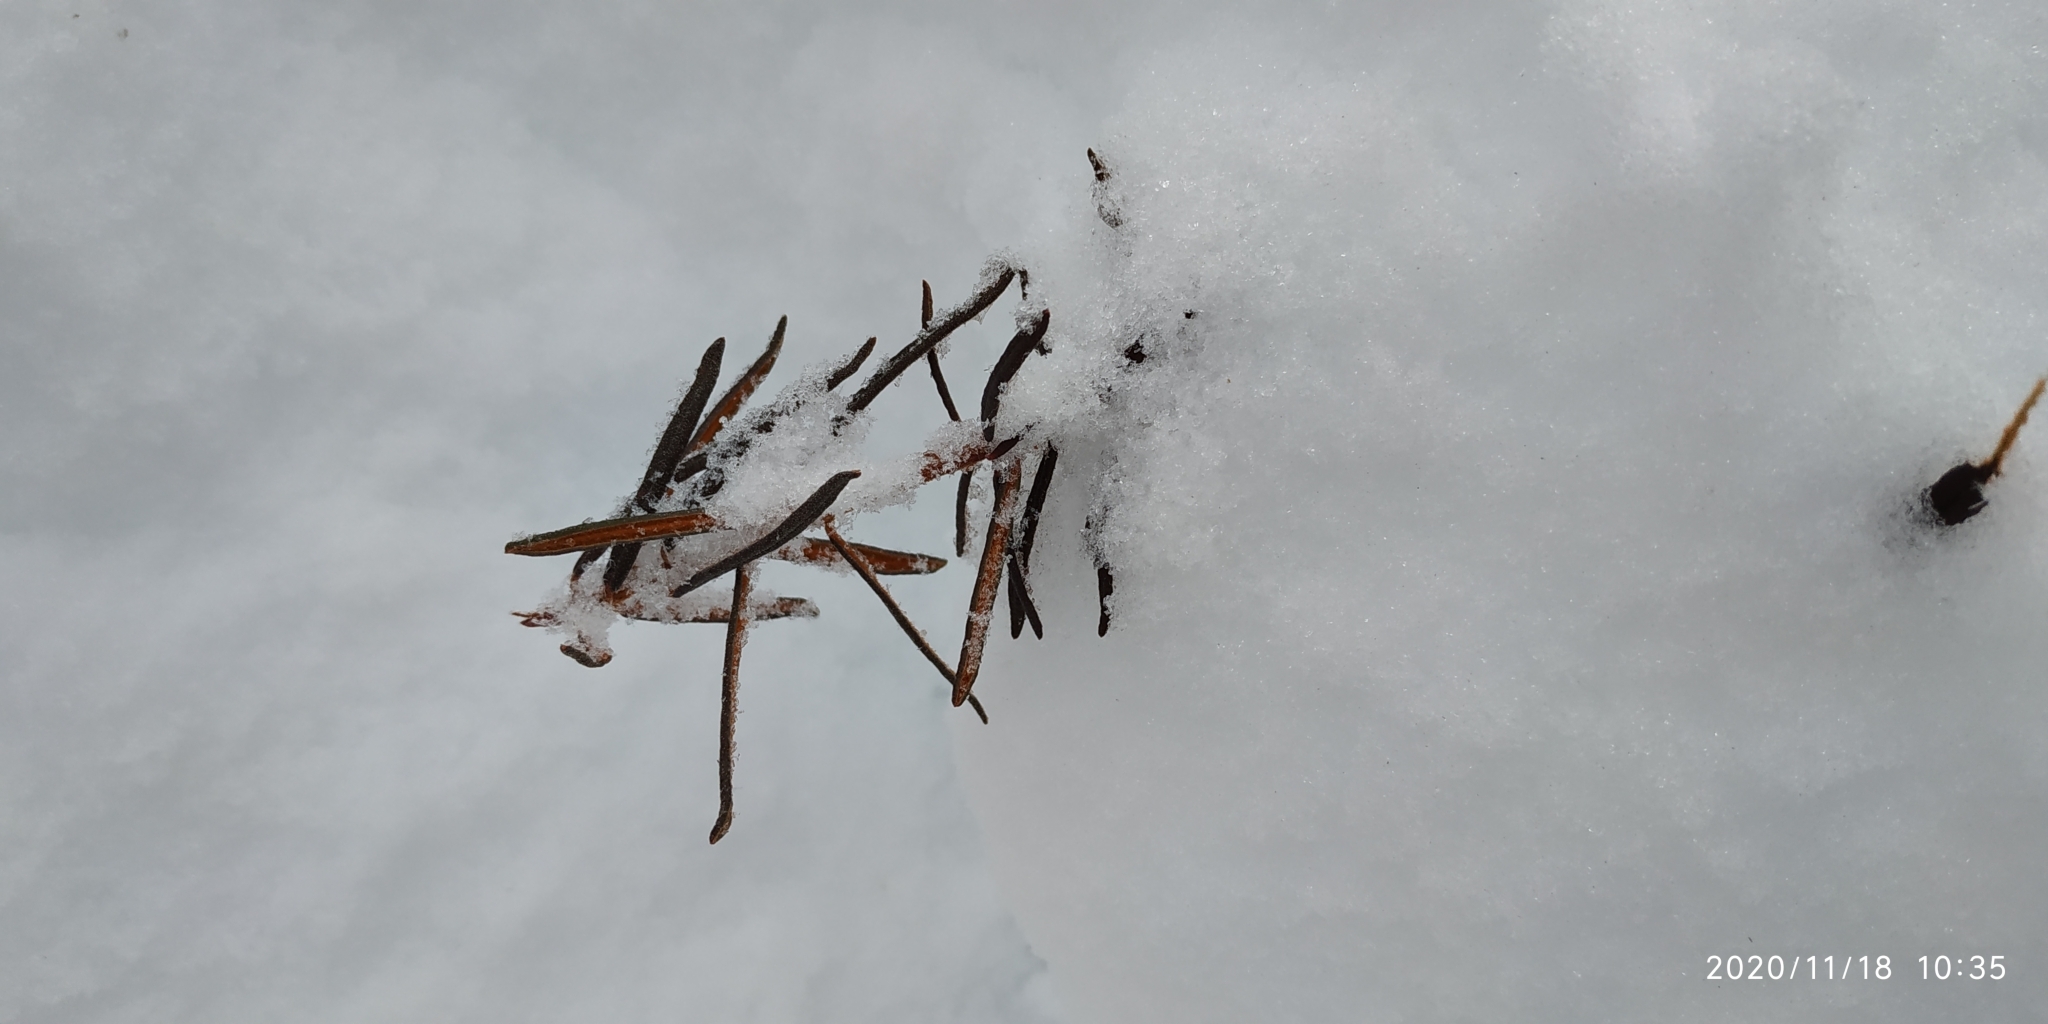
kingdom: Plantae
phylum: Tracheophyta
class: Magnoliopsida
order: Ericales
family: Ericaceae
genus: Rhododendron
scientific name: Rhododendron tomentosum
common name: Marsh labrador tea
